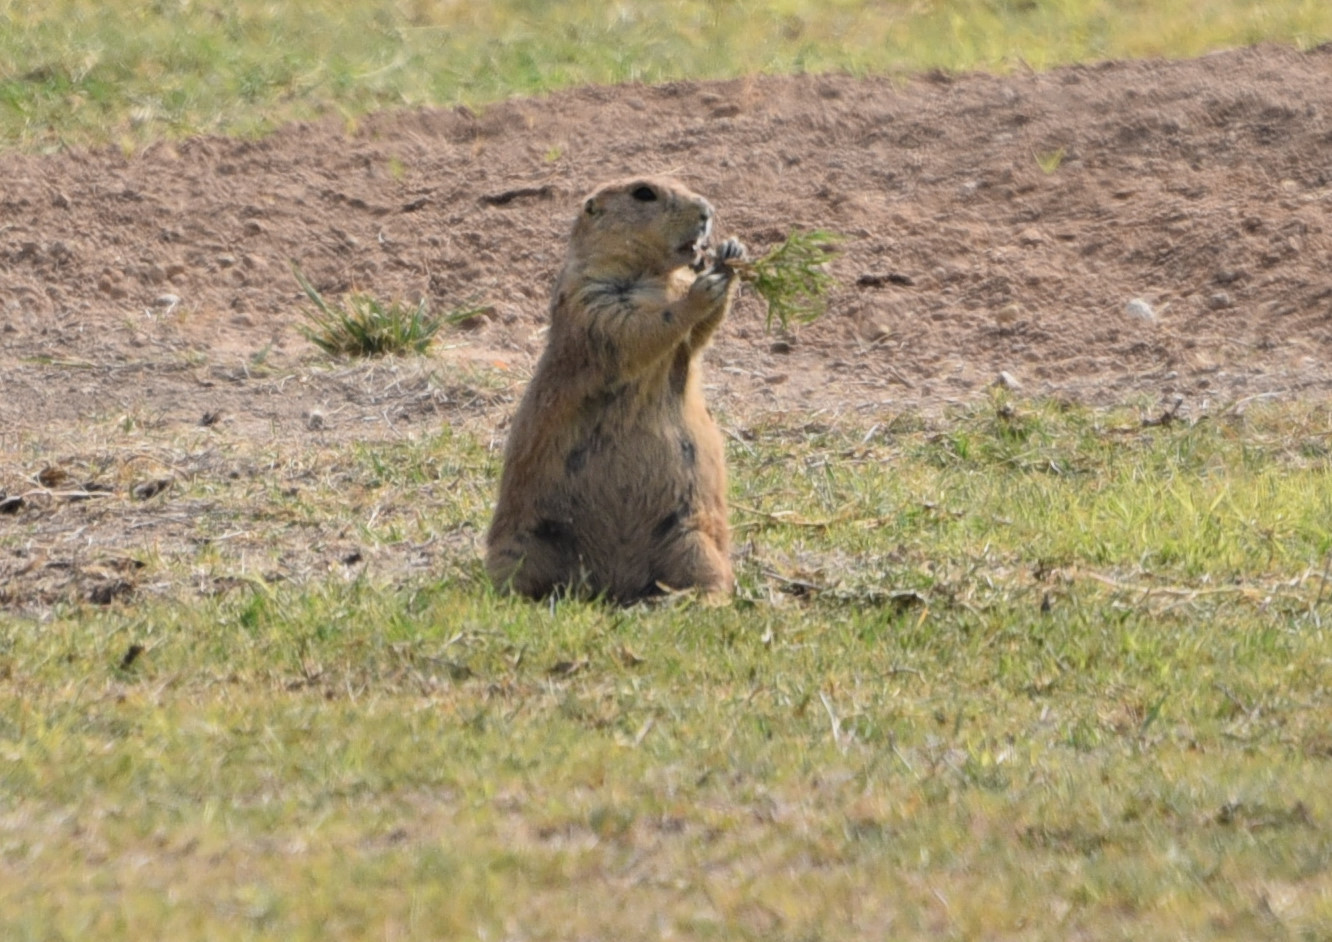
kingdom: Animalia
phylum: Chordata
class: Mammalia
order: Rodentia
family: Sciuridae
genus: Cynomys
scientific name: Cynomys ludovicianus
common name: Black-tailed prairie dog
